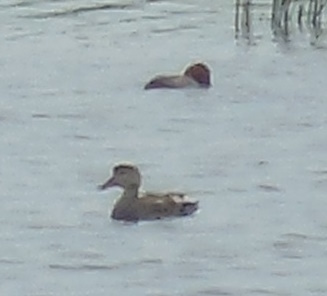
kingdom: Animalia
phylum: Chordata
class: Aves
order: Anseriformes
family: Anatidae
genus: Mareca
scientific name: Mareca strepera
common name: Gadwall
